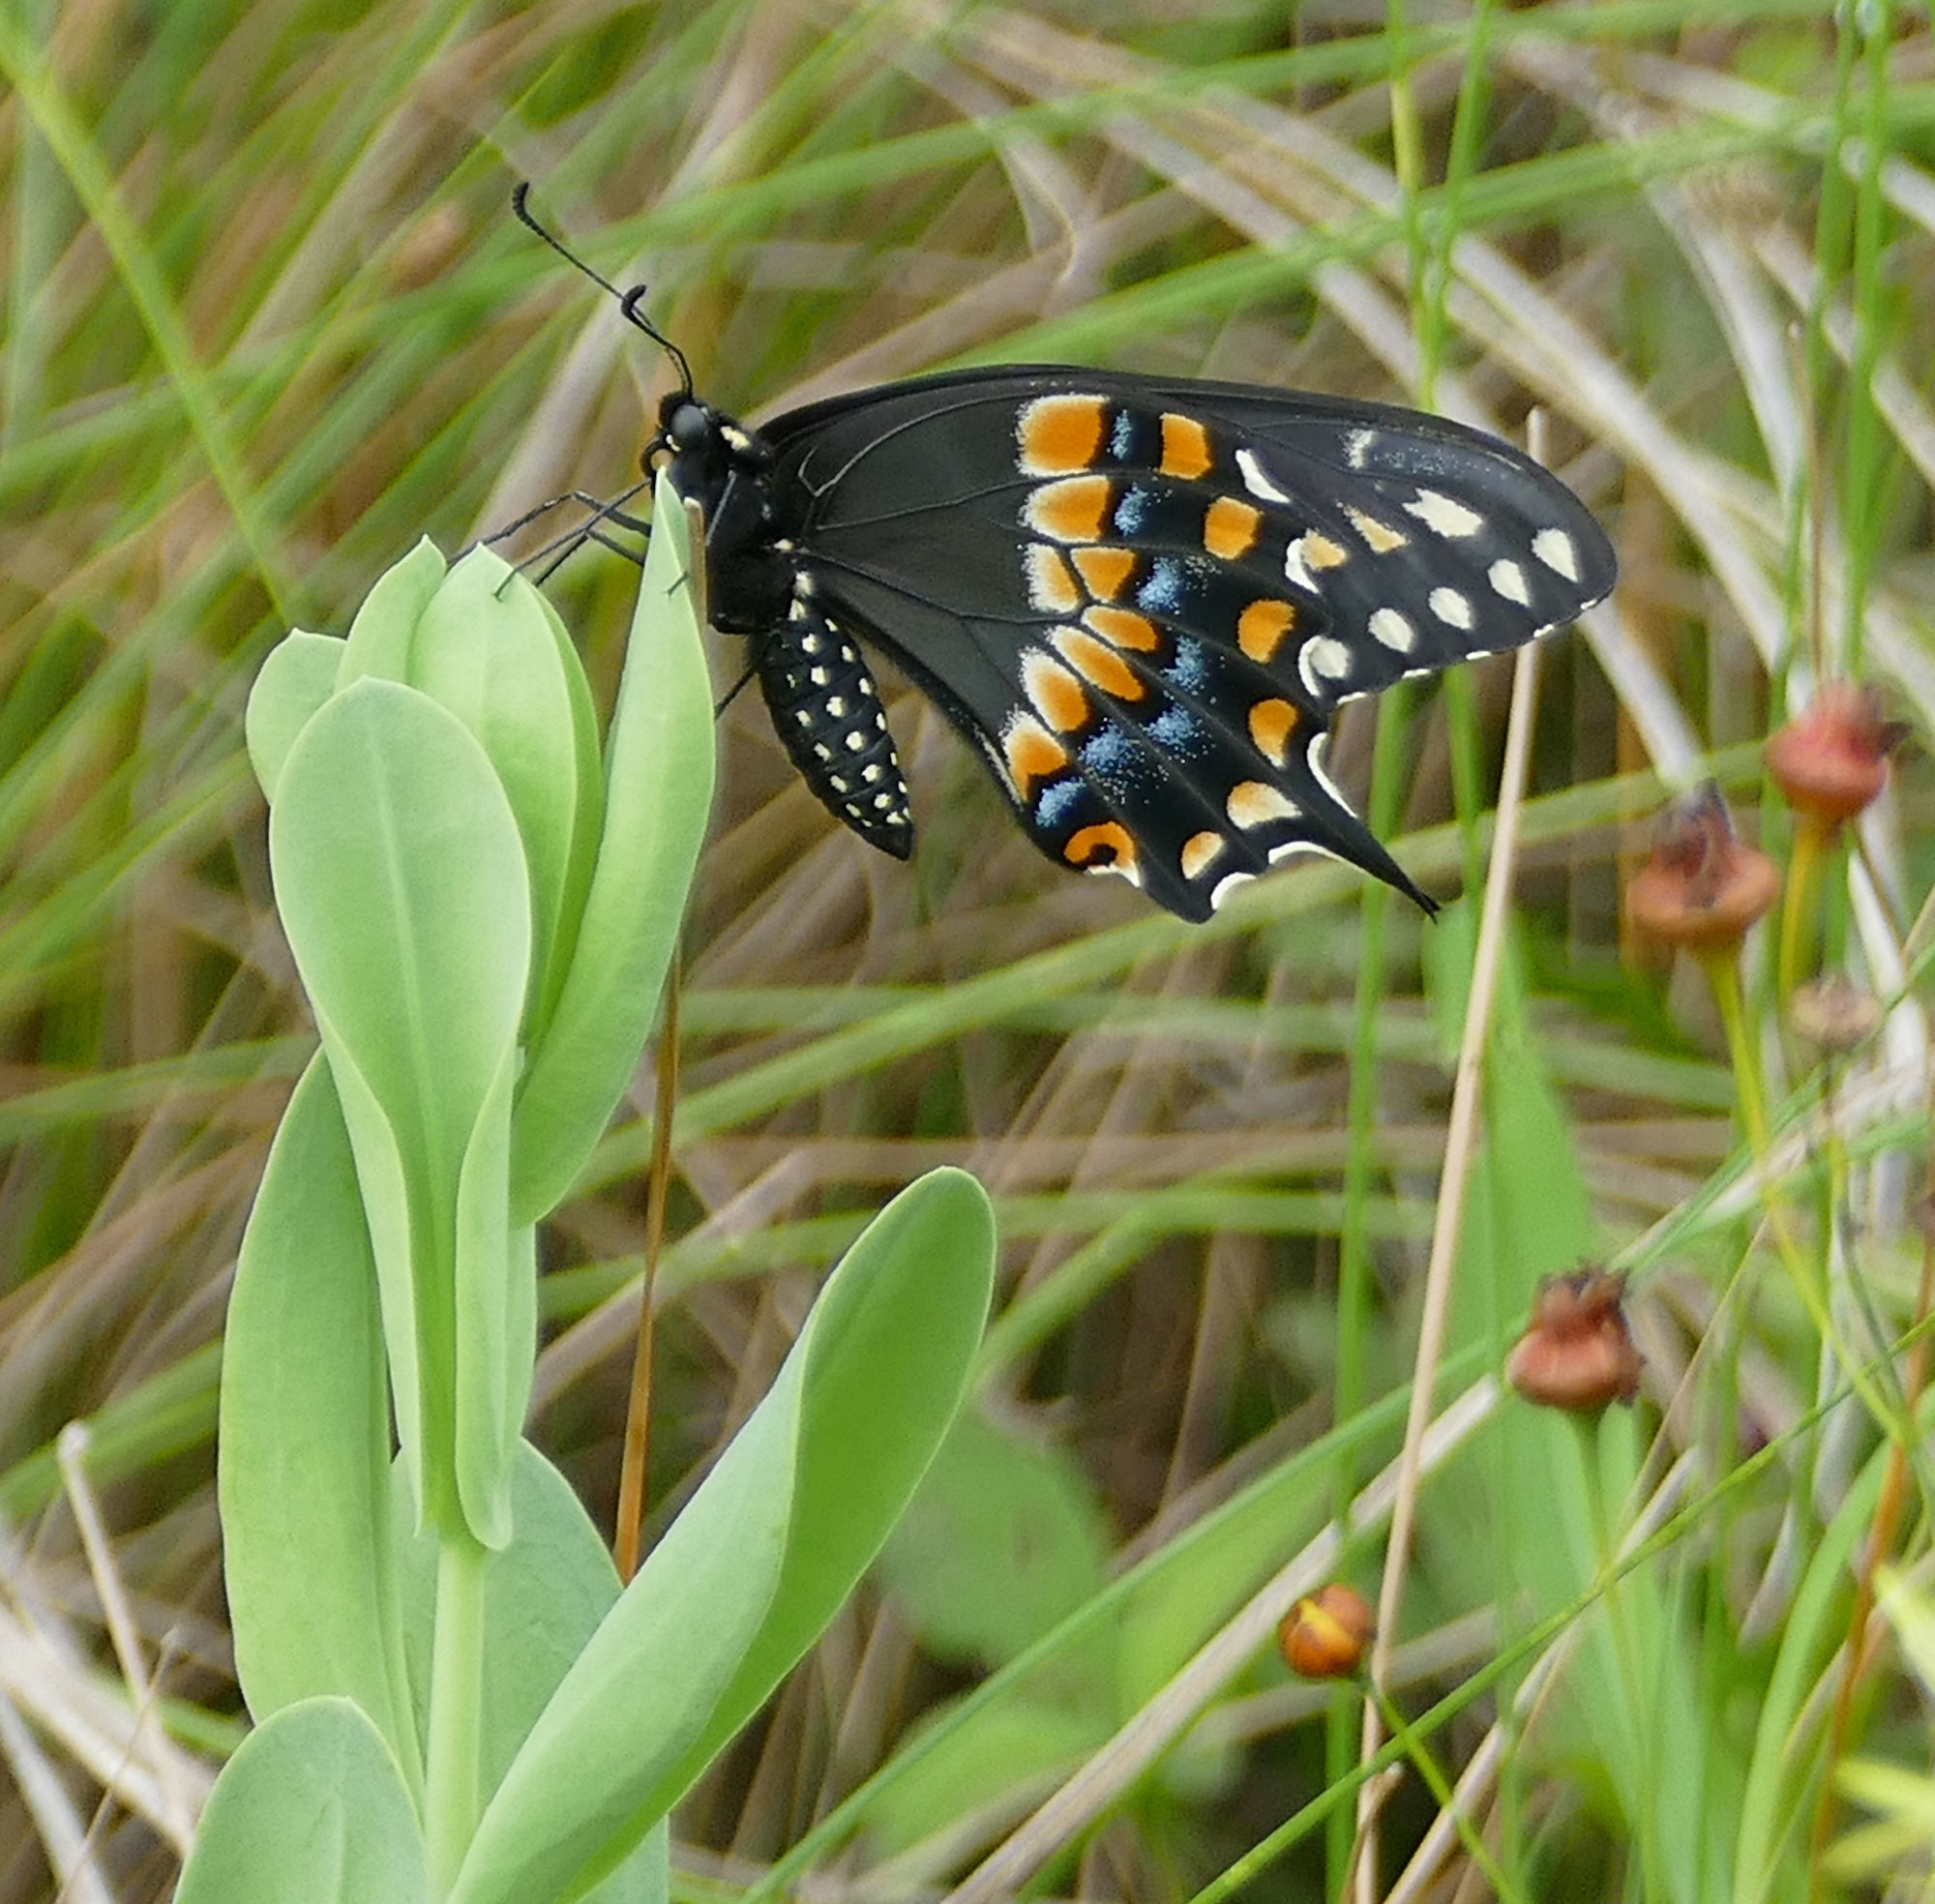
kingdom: Animalia
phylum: Arthropoda
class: Insecta
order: Lepidoptera
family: Papilionidae
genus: Papilio
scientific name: Papilio polyxenes
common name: Black swallowtail
